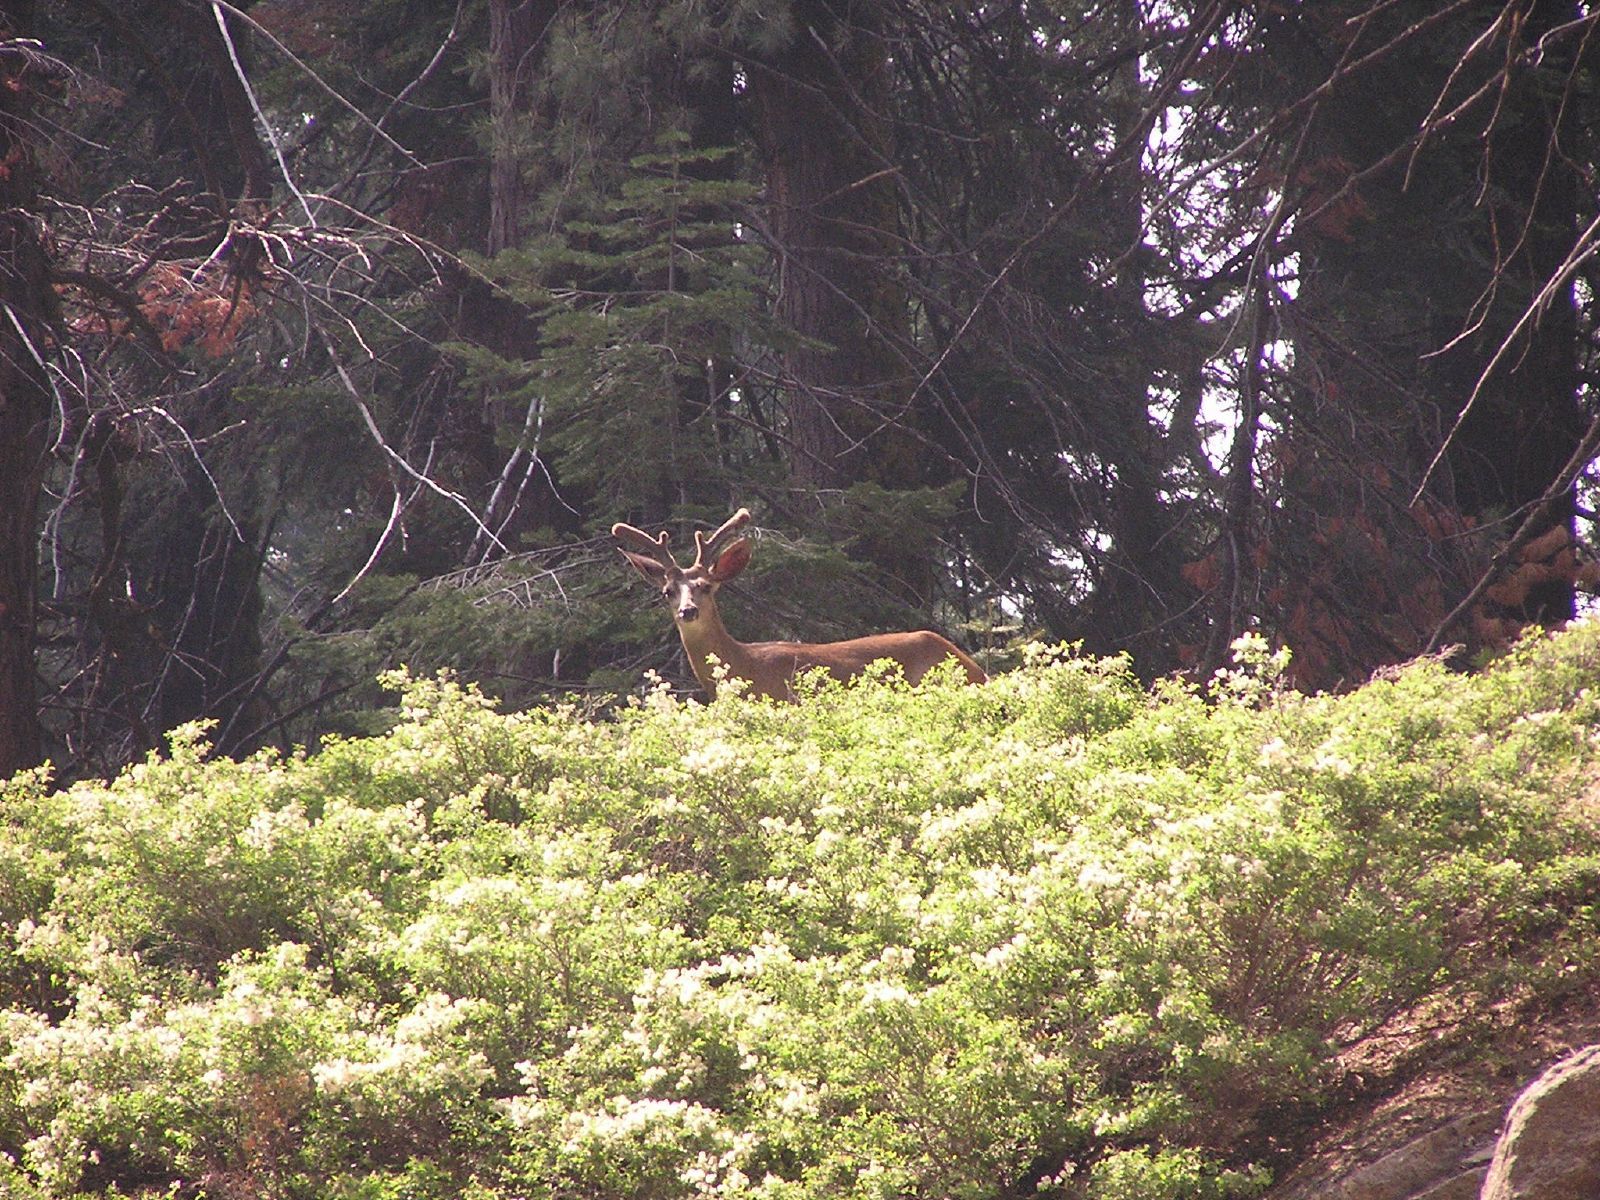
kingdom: Animalia
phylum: Chordata
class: Mammalia
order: Artiodactyla
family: Cervidae
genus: Odocoileus
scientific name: Odocoileus hemionus
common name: Mule deer
